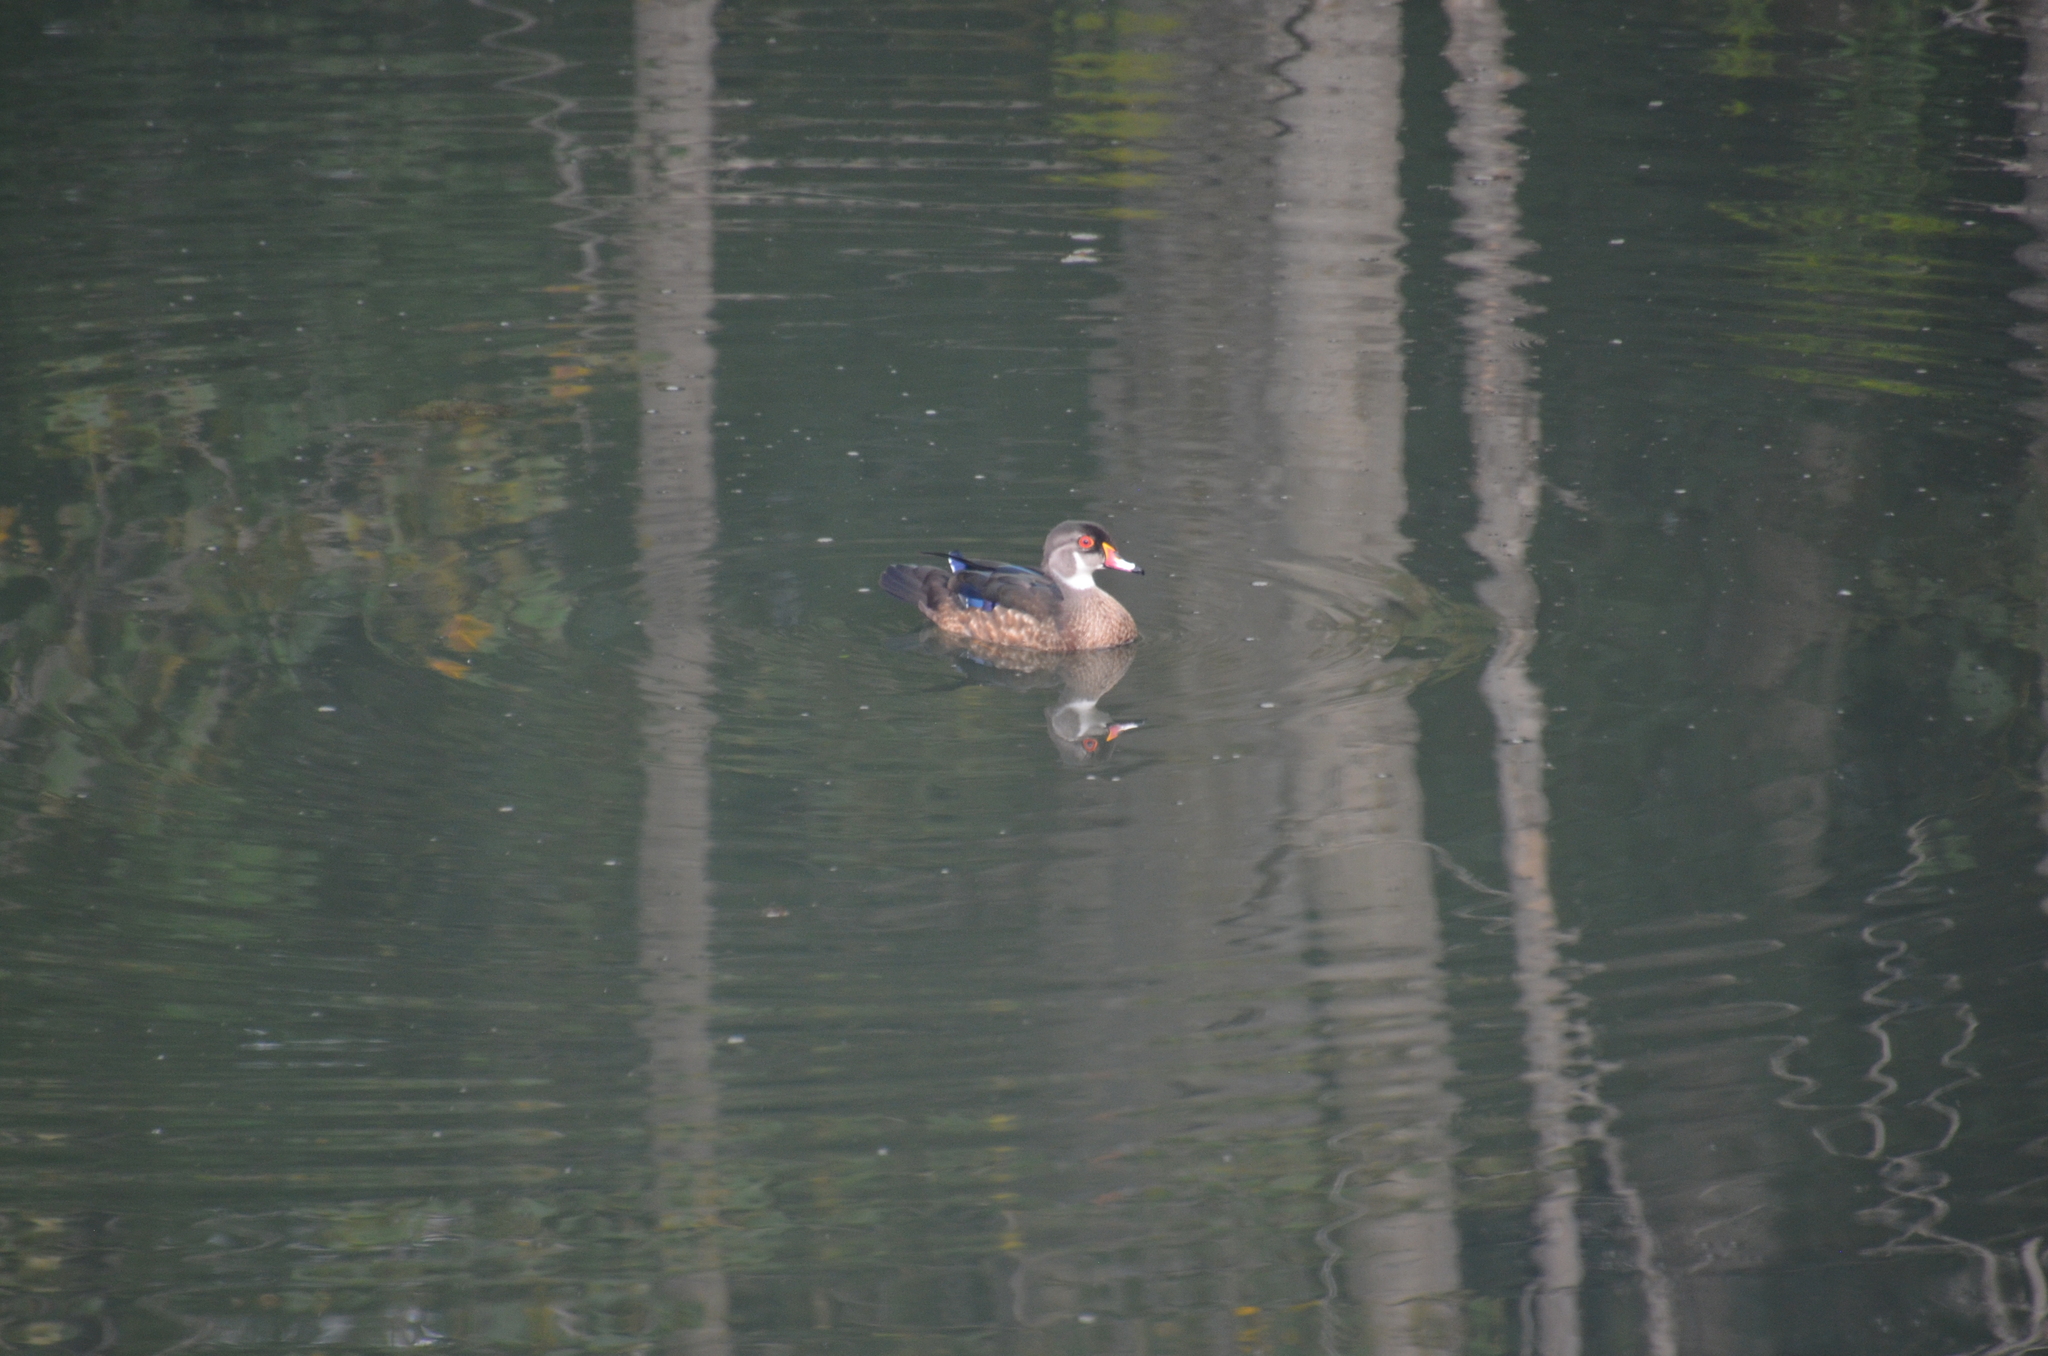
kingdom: Animalia
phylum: Chordata
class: Aves
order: Anseriformes
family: Anatidae
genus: Aix
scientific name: Aix sponsa
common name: Wood duck
